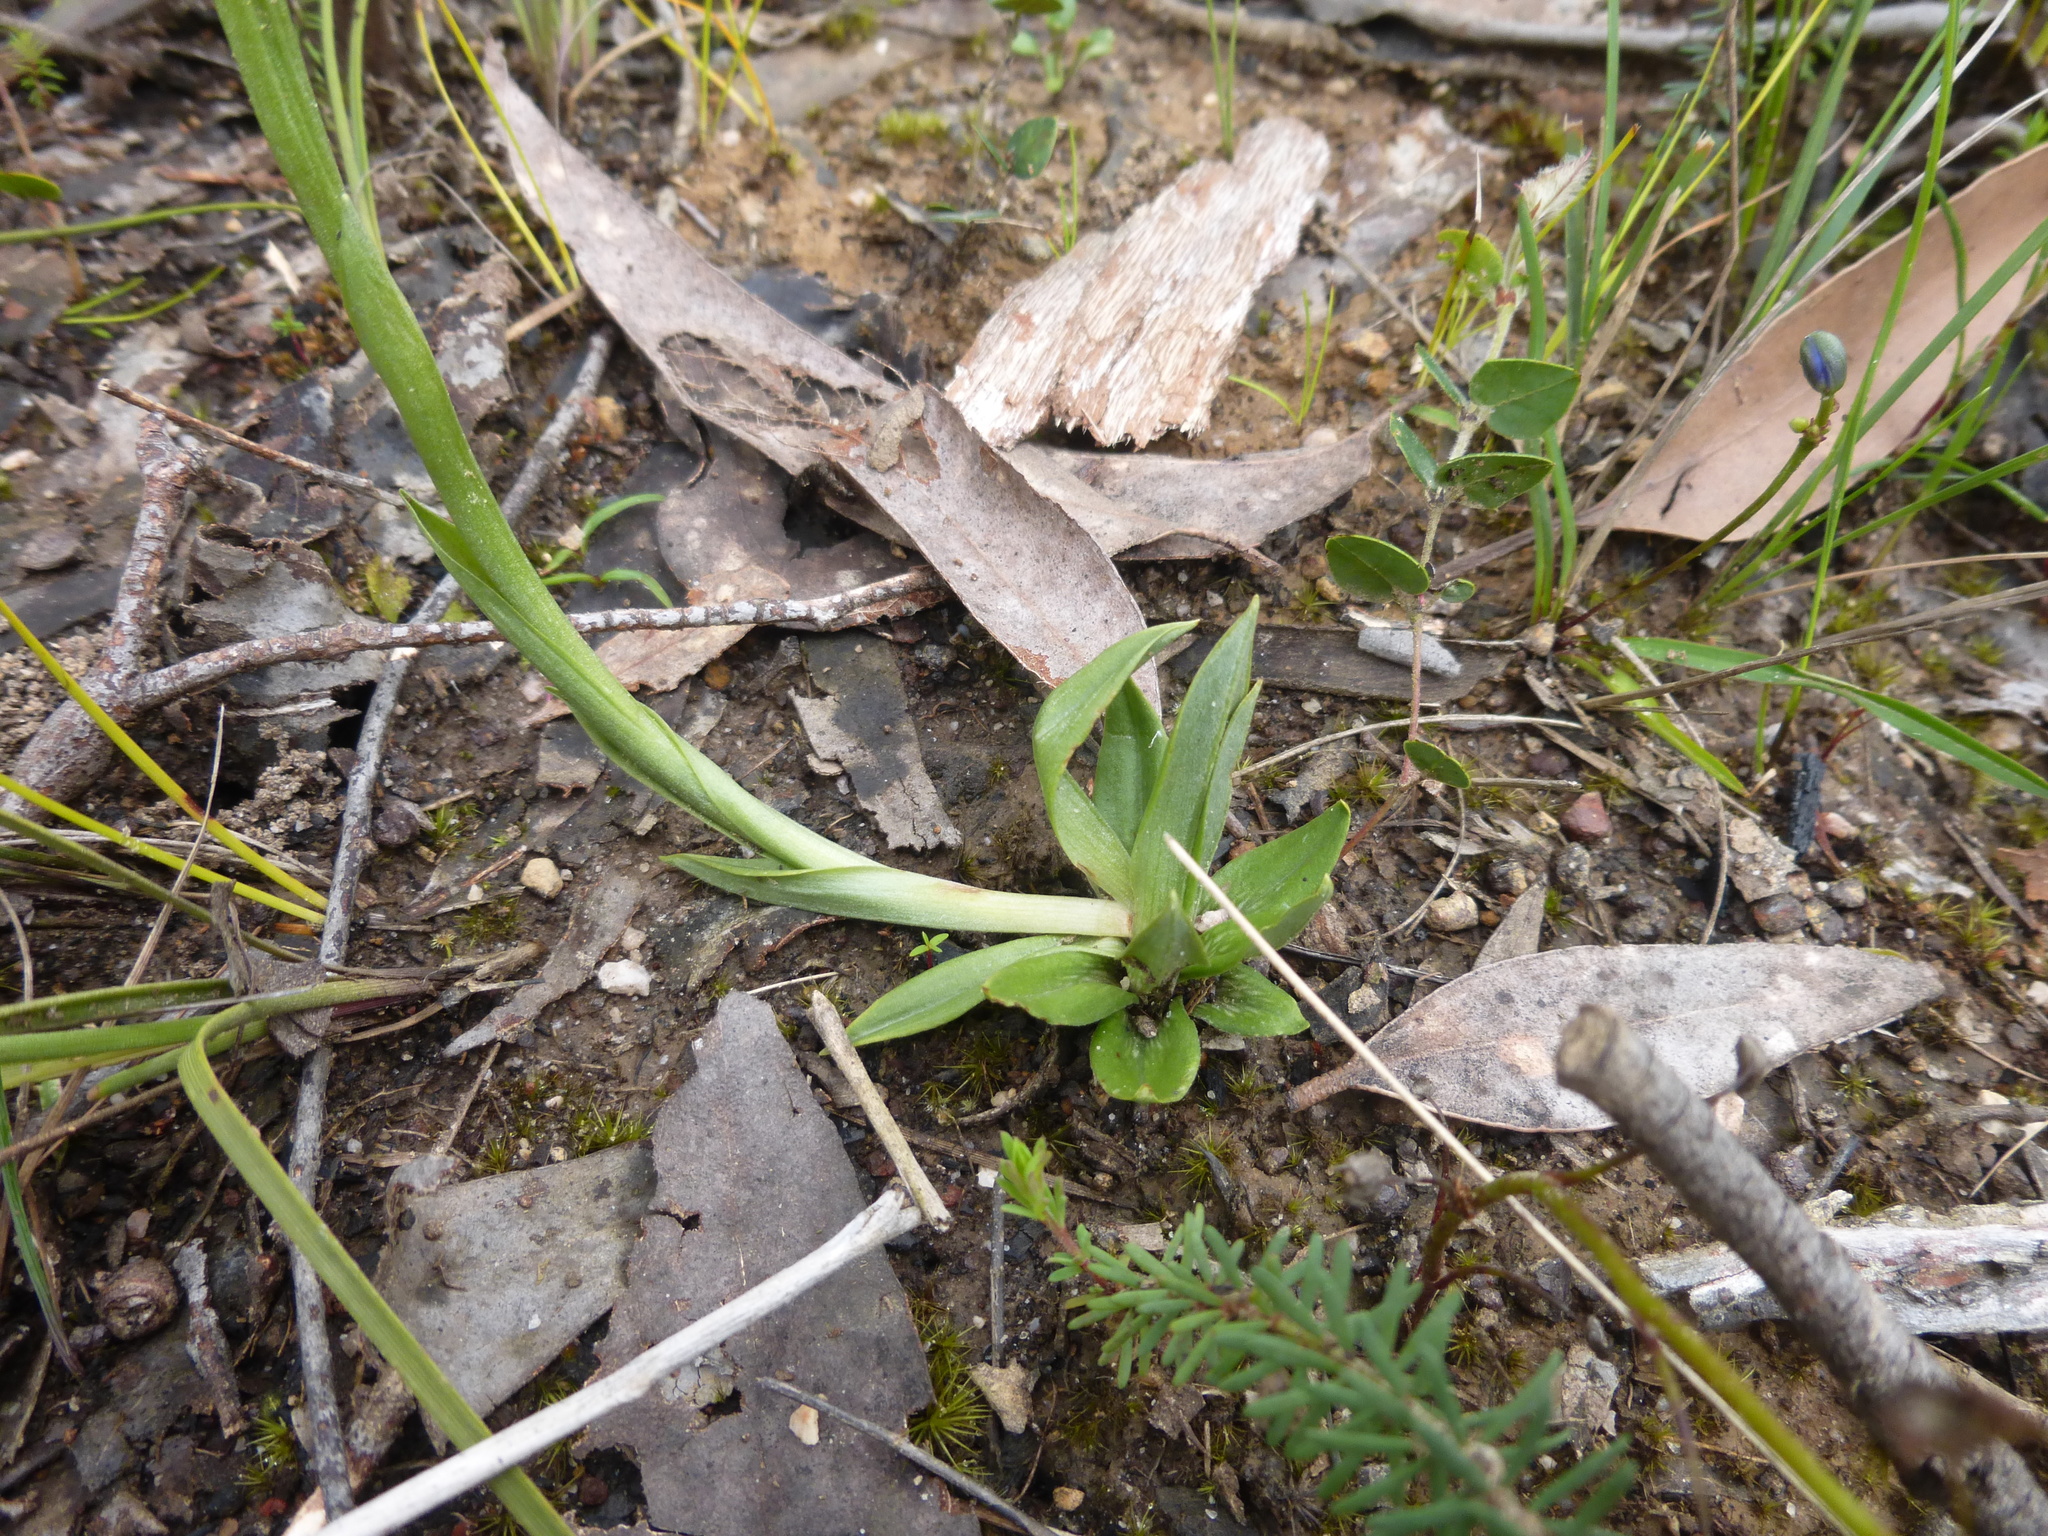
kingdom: Plantae
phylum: Tracheophyta
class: Liliopsida
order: Asparagales
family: Orchidaceae
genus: Pterostylis
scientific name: Pterostylis plumosa
